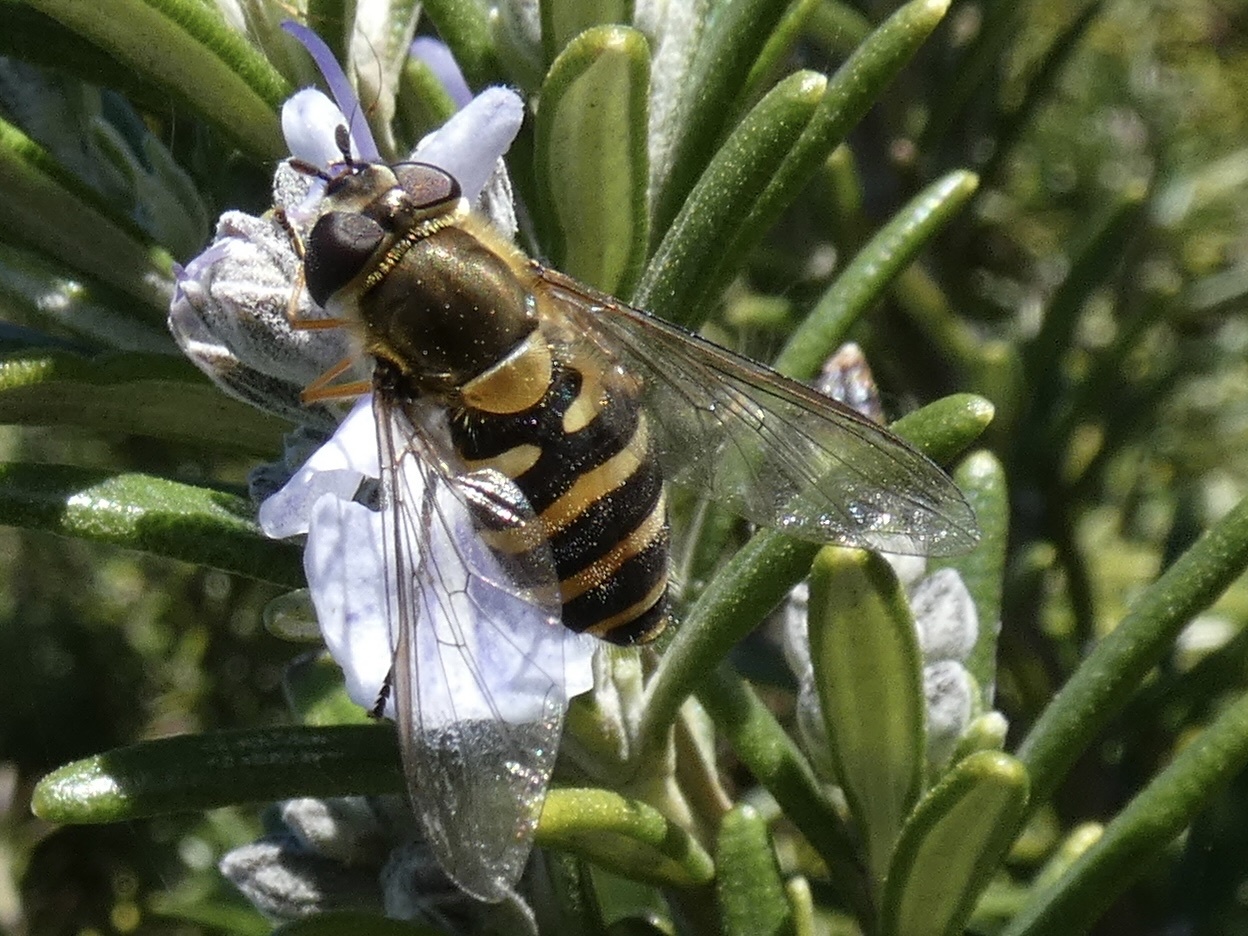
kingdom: Animalia
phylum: Arthropoda
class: Insecta
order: Diptera
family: Syrphidae
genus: Syrphus
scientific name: Syrphus torvus
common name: Hairy-eyed flower fly
